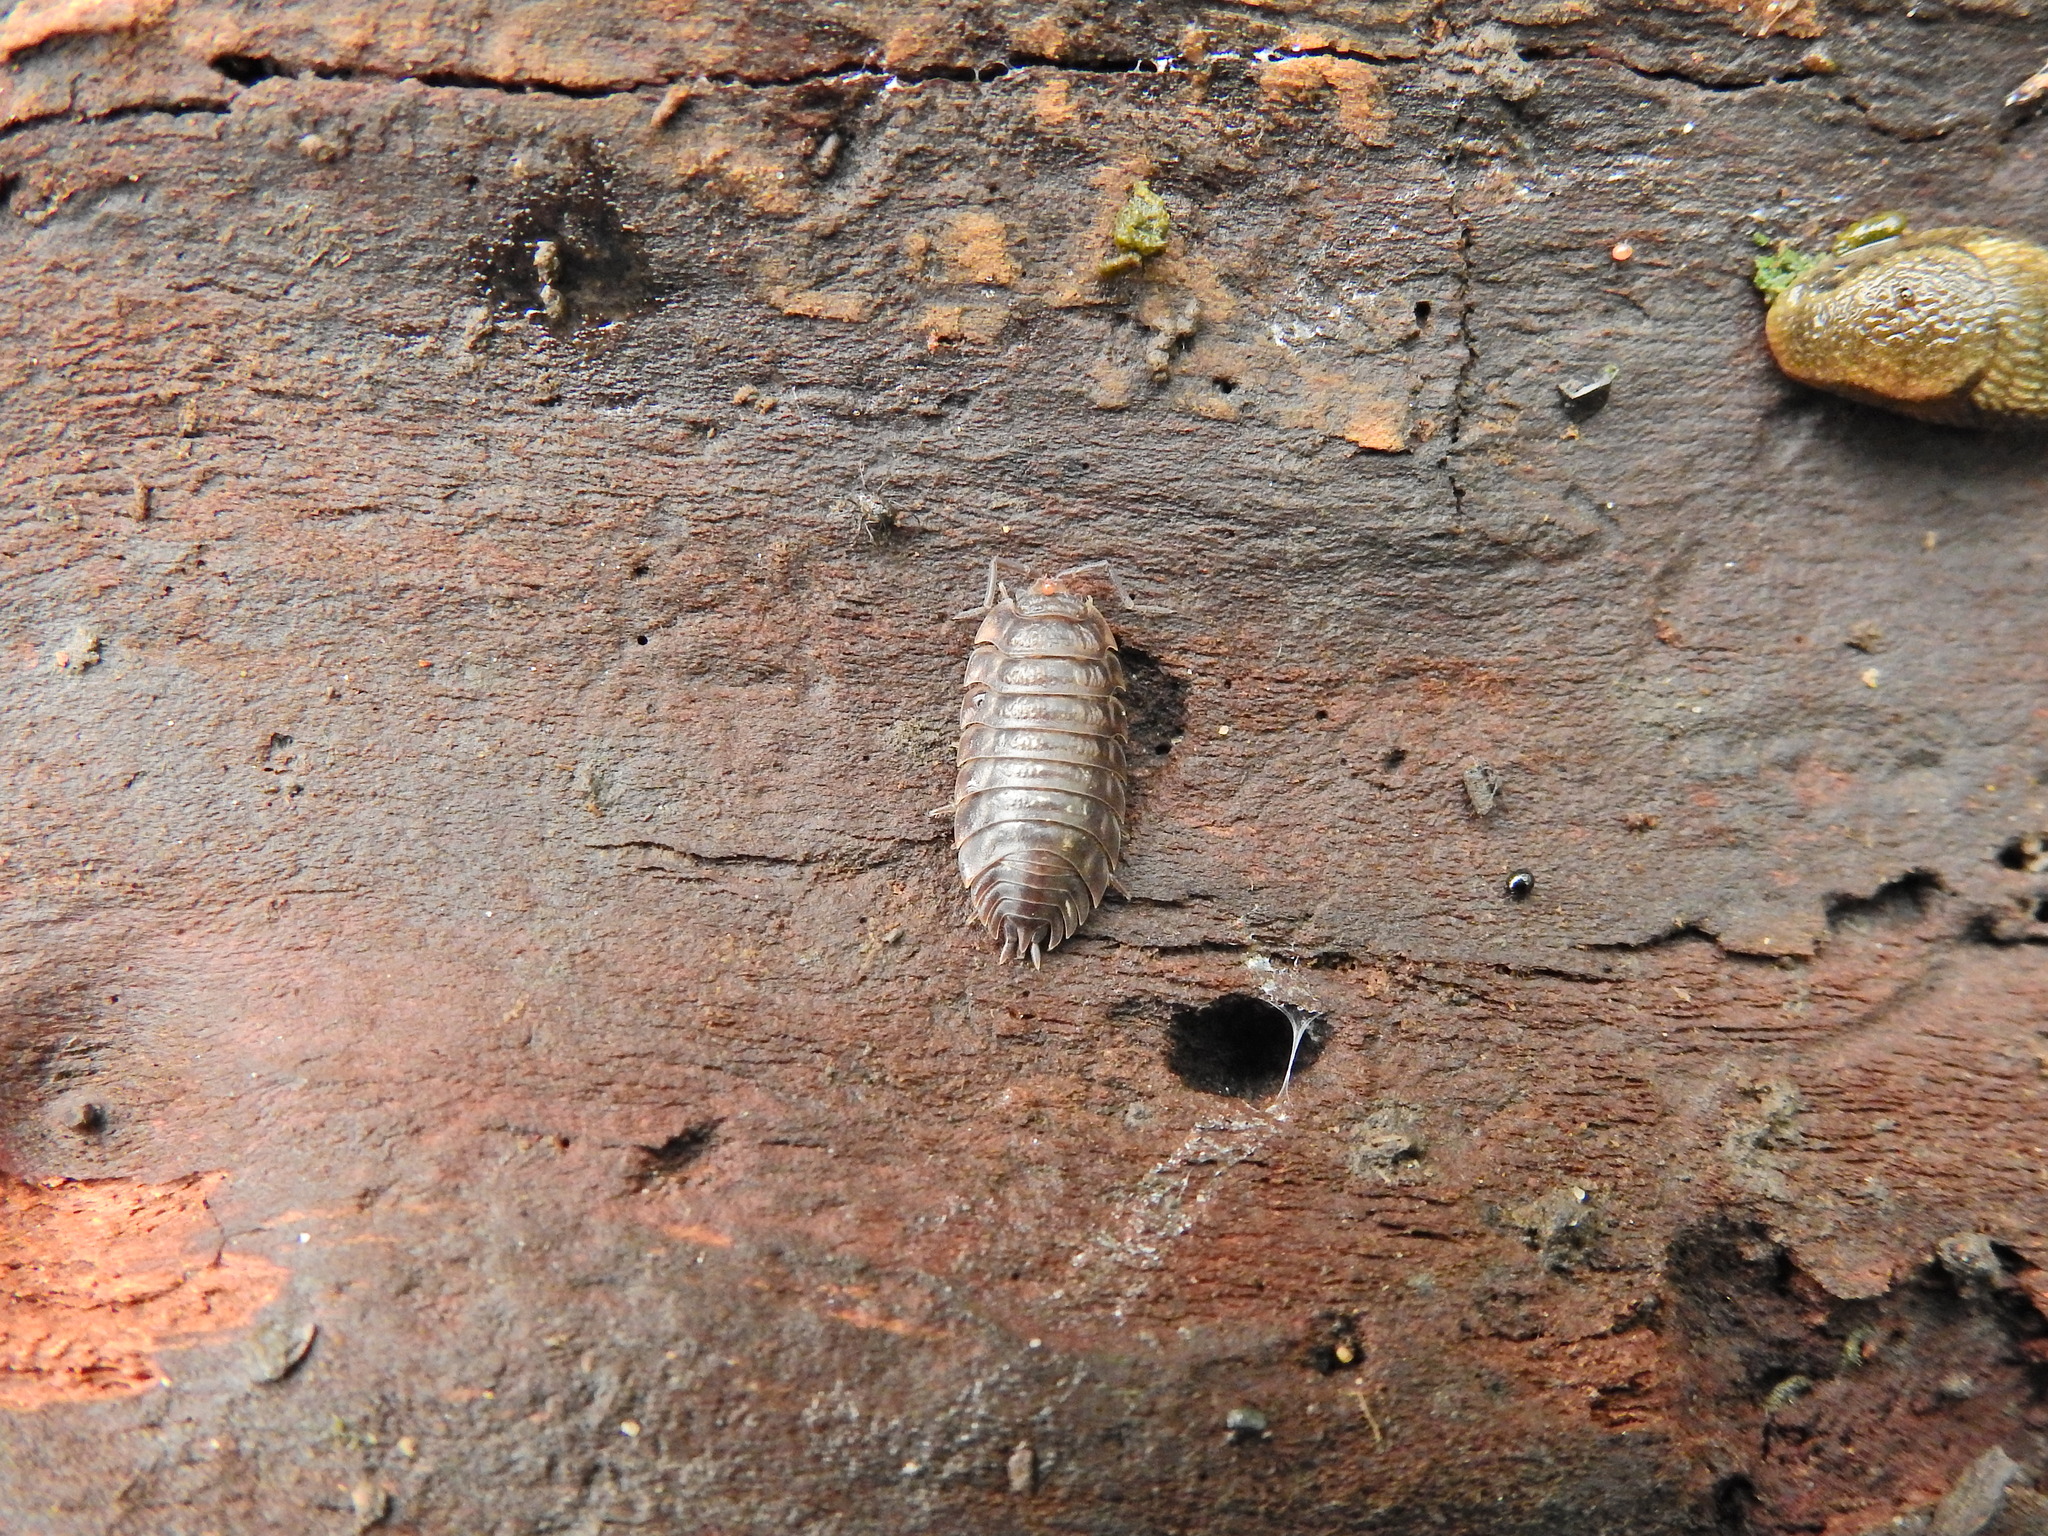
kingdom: Animalia
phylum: Arthropoda
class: Malacostraca
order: Isopoda
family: Oniscidae
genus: Oniscus
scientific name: Oniscus asellus
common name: Common shiny woodlouse
